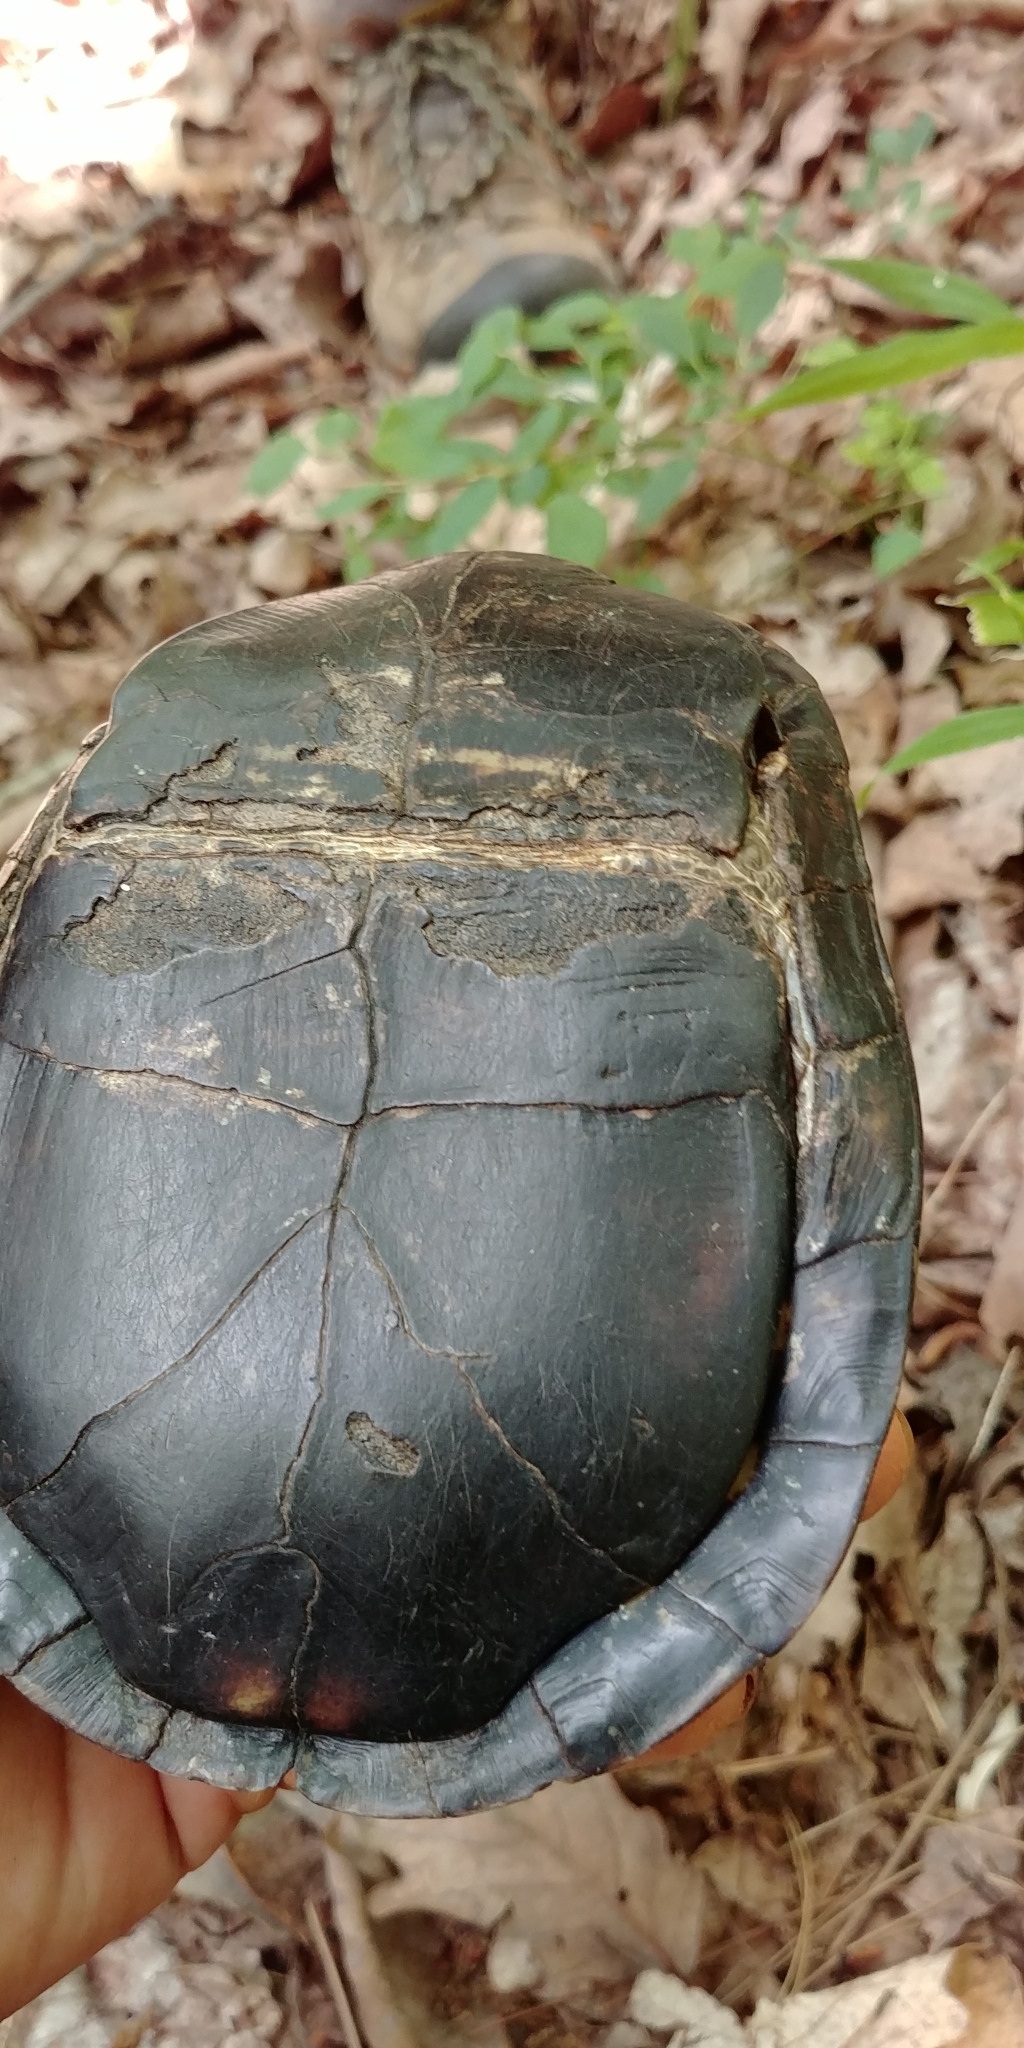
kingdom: Animalia
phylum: Chordata
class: Testudines
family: Emydidae
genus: Terrapene
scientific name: Terrapene carolina
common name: Common box turtle
